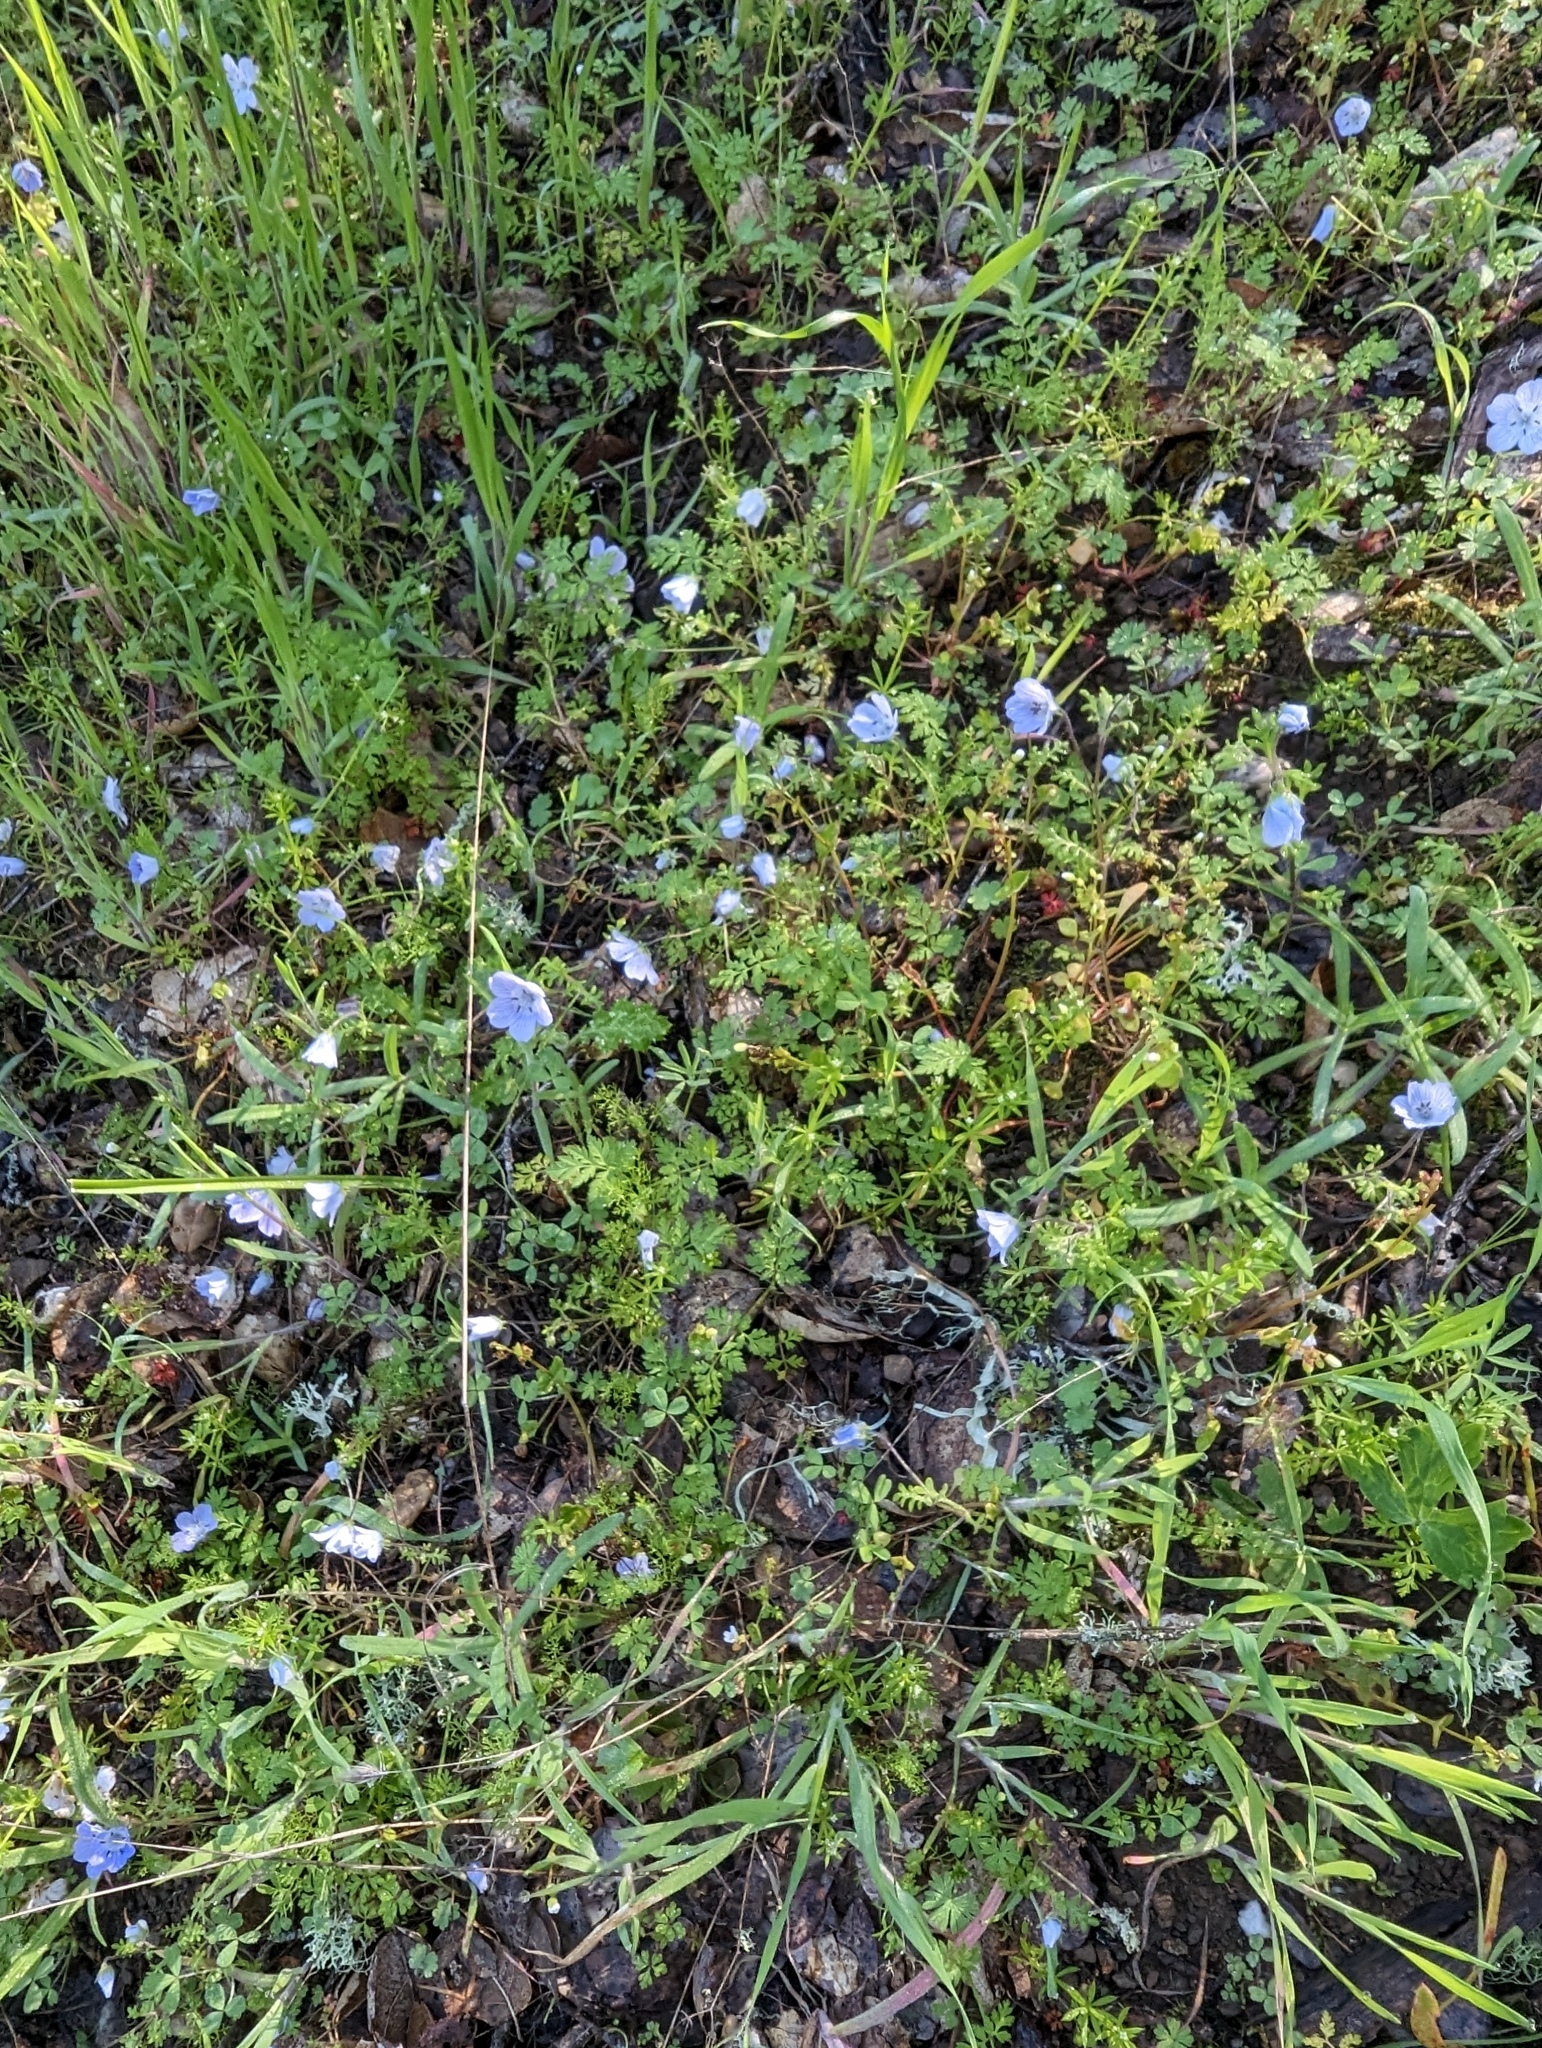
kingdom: Plantae
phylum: Tracheophyta
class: Magnoliopsida
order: Boraginales
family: Hydrophyllaceae
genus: Nemophila
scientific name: Nemophila menziesii
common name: Baby's-blue-eyes
